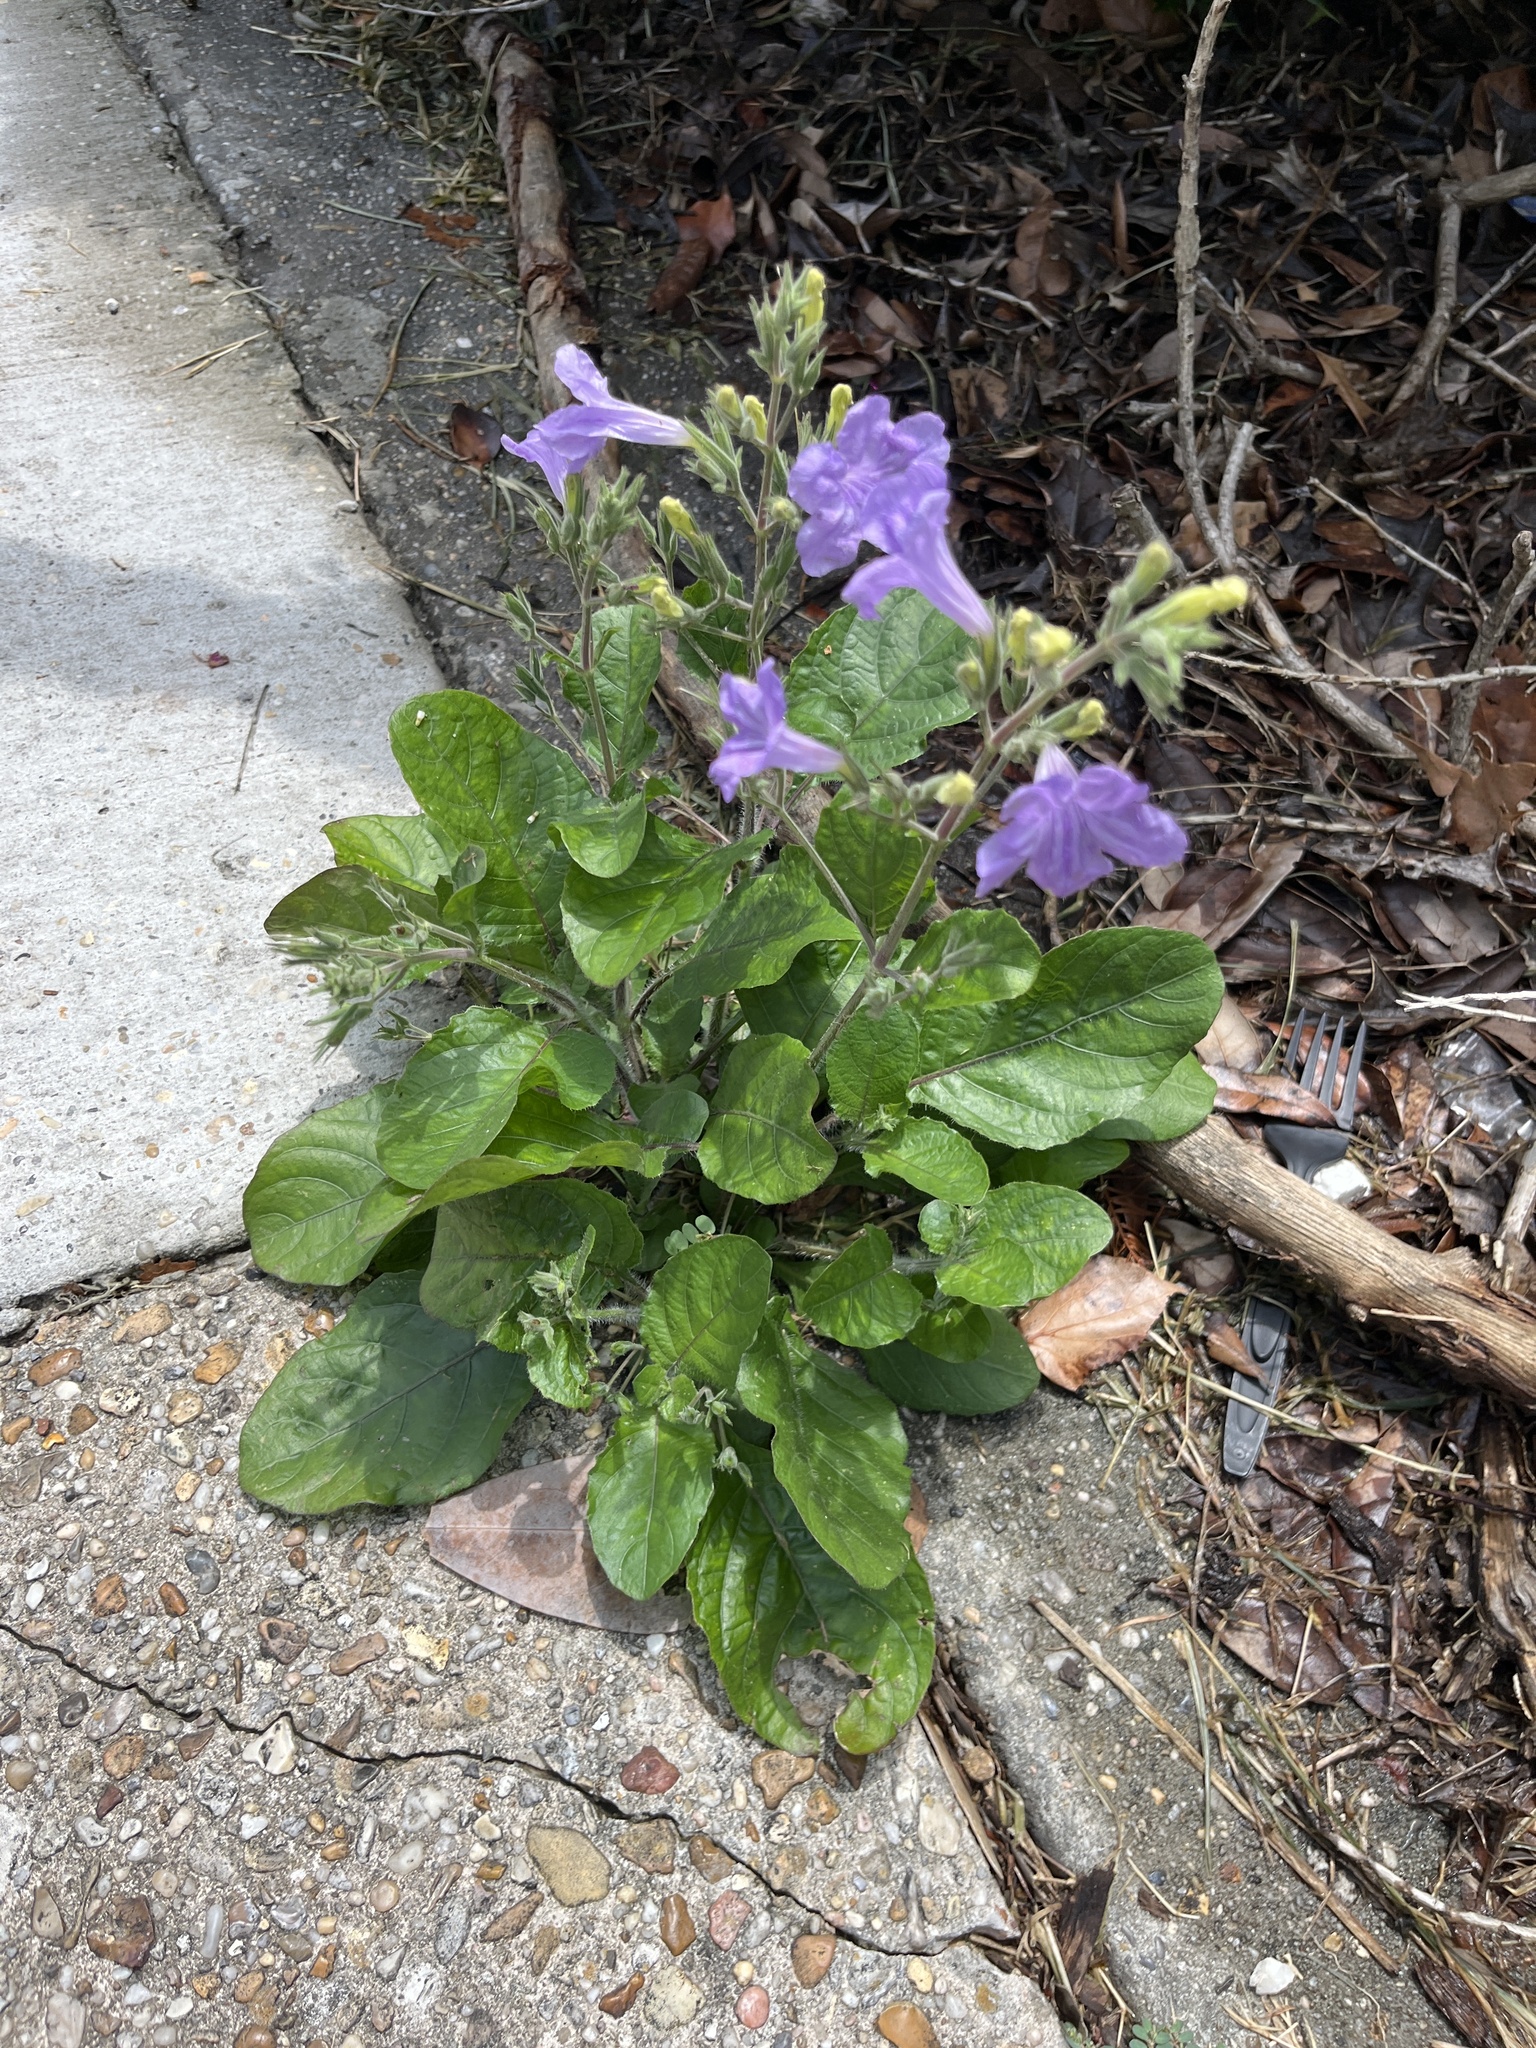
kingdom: Plantae
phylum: Tracheophyta
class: Magnoliopsida
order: Lamiales
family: Acanthaceae
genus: Ruellia
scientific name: Ruellia ciliatiflora
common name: Hairyflower wild petunia
